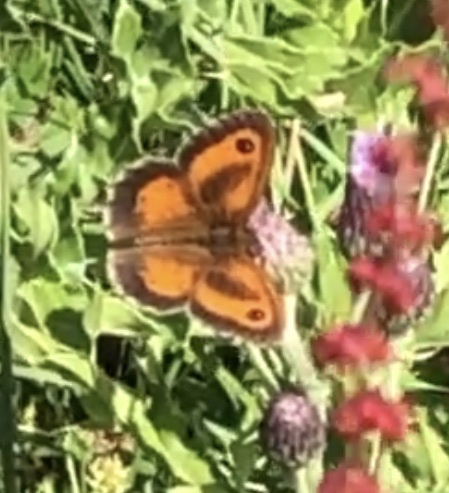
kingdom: Animalia
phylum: Arthropoda
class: Insecta
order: Lepidoptera
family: Nymphalidae
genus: Pyronia
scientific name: Pyronia tithonus
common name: Gatekeeper
